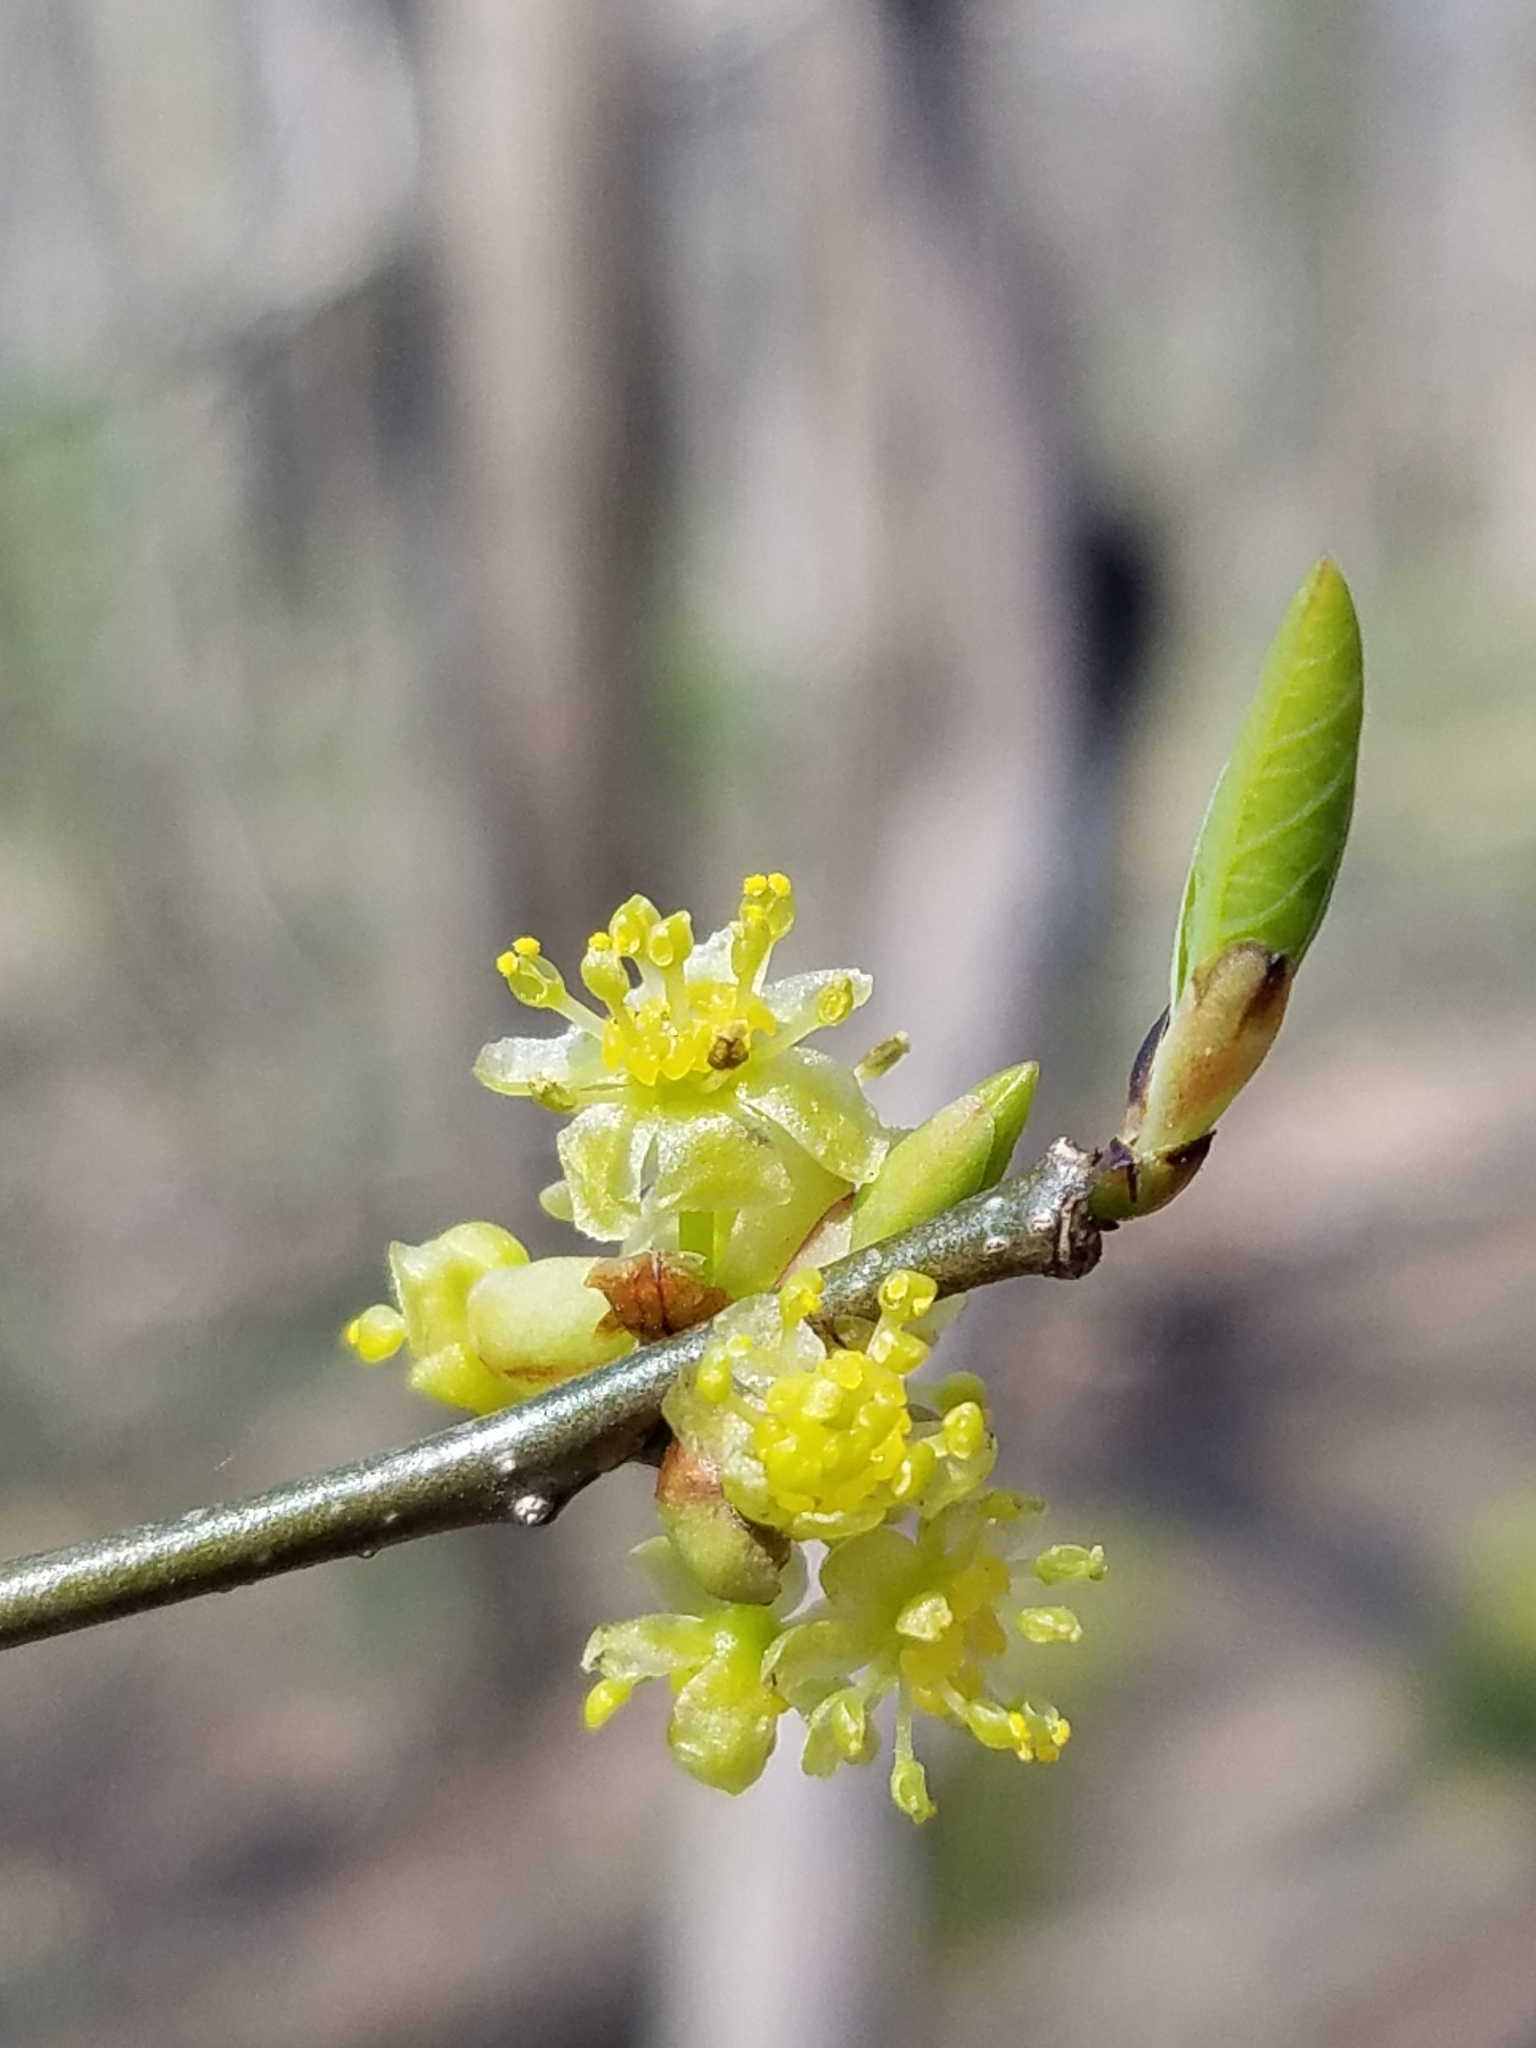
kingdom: Plantae
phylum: Tracheophyta
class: Magnoliopsida
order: Laurales
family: Lauraceae
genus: Lindera
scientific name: Lindera benzoin
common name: Spicebush
